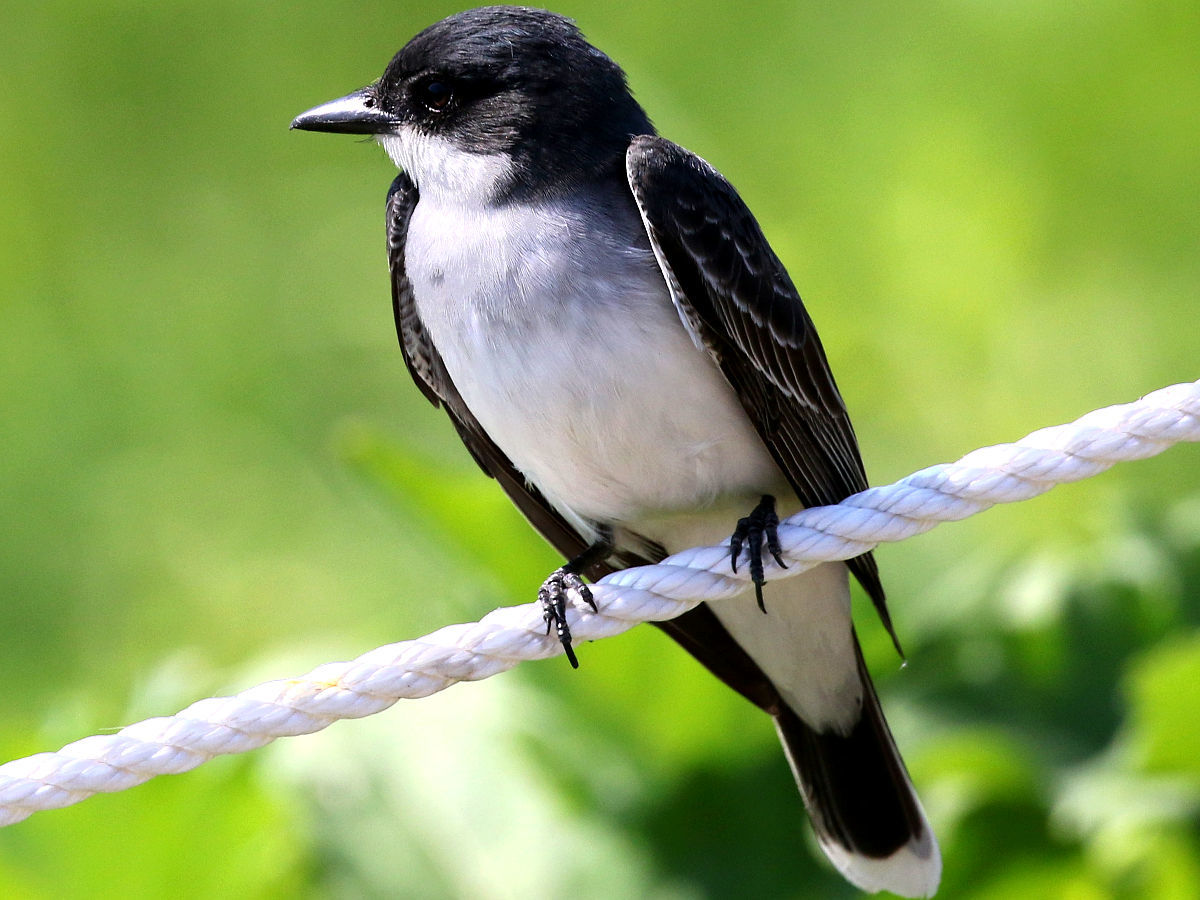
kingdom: Animalia
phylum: Chordata
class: Aves
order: Passeriformes
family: Tyrannidae
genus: Tyrannus
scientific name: Tyrannus tyrannus
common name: Eastern kingbird
